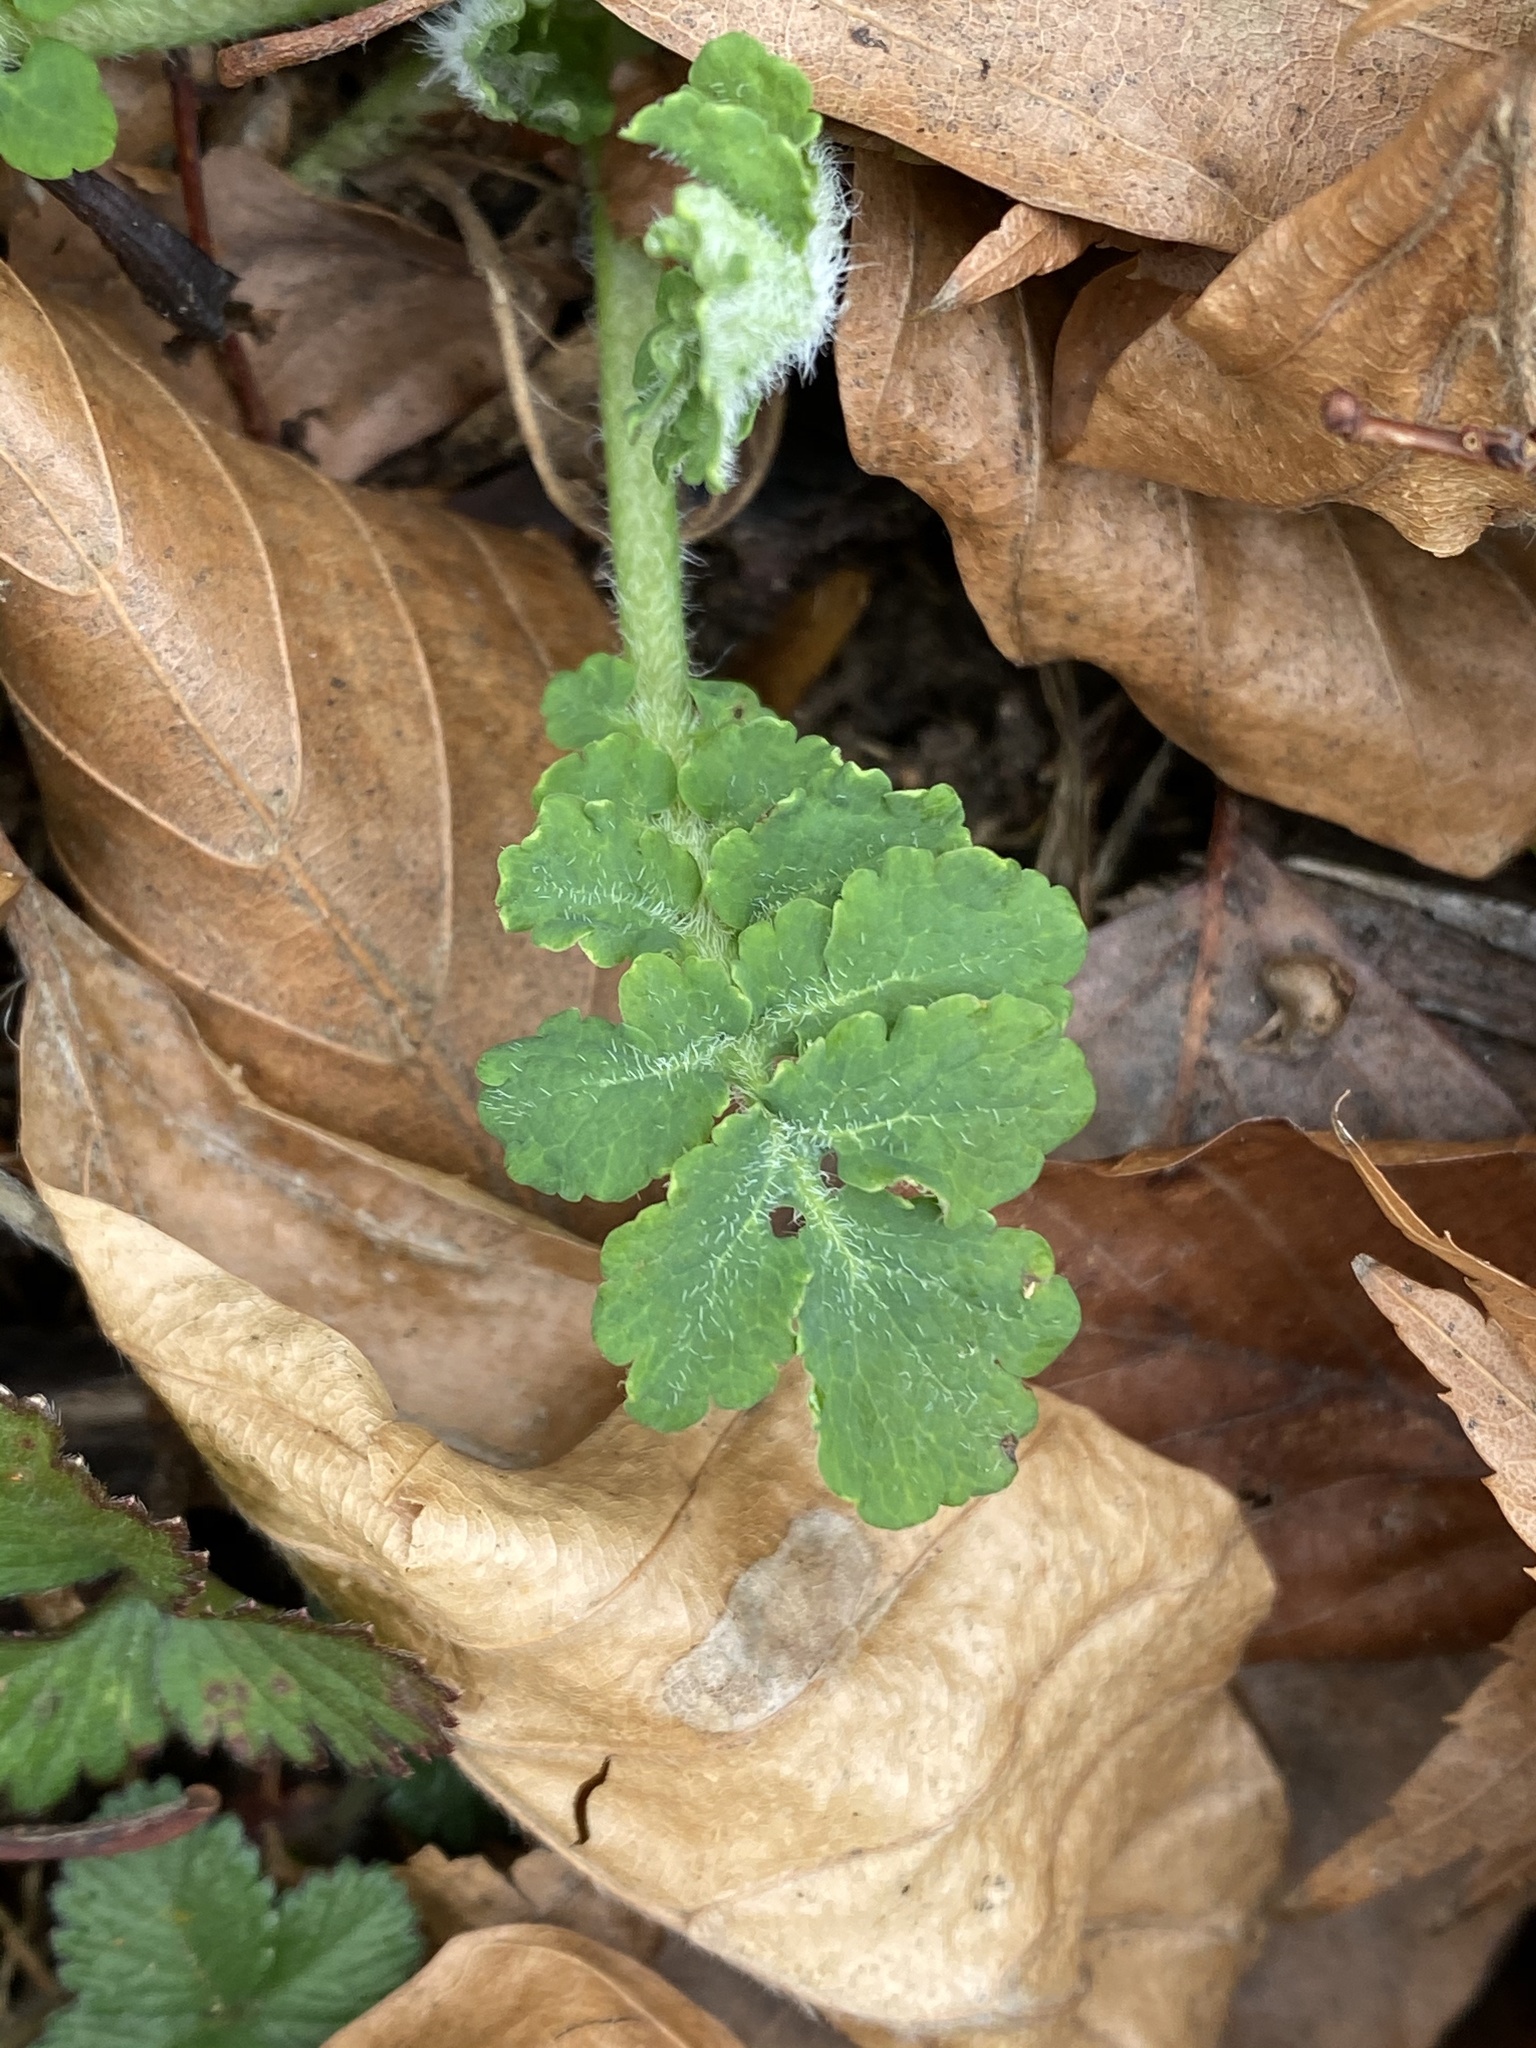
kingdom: Plantae
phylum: Tracheophyta
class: Magnoliopsida
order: Ranunculales
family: Papaveraceae
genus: Chelidonium
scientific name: Chelidonium majus
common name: Greater celandine
